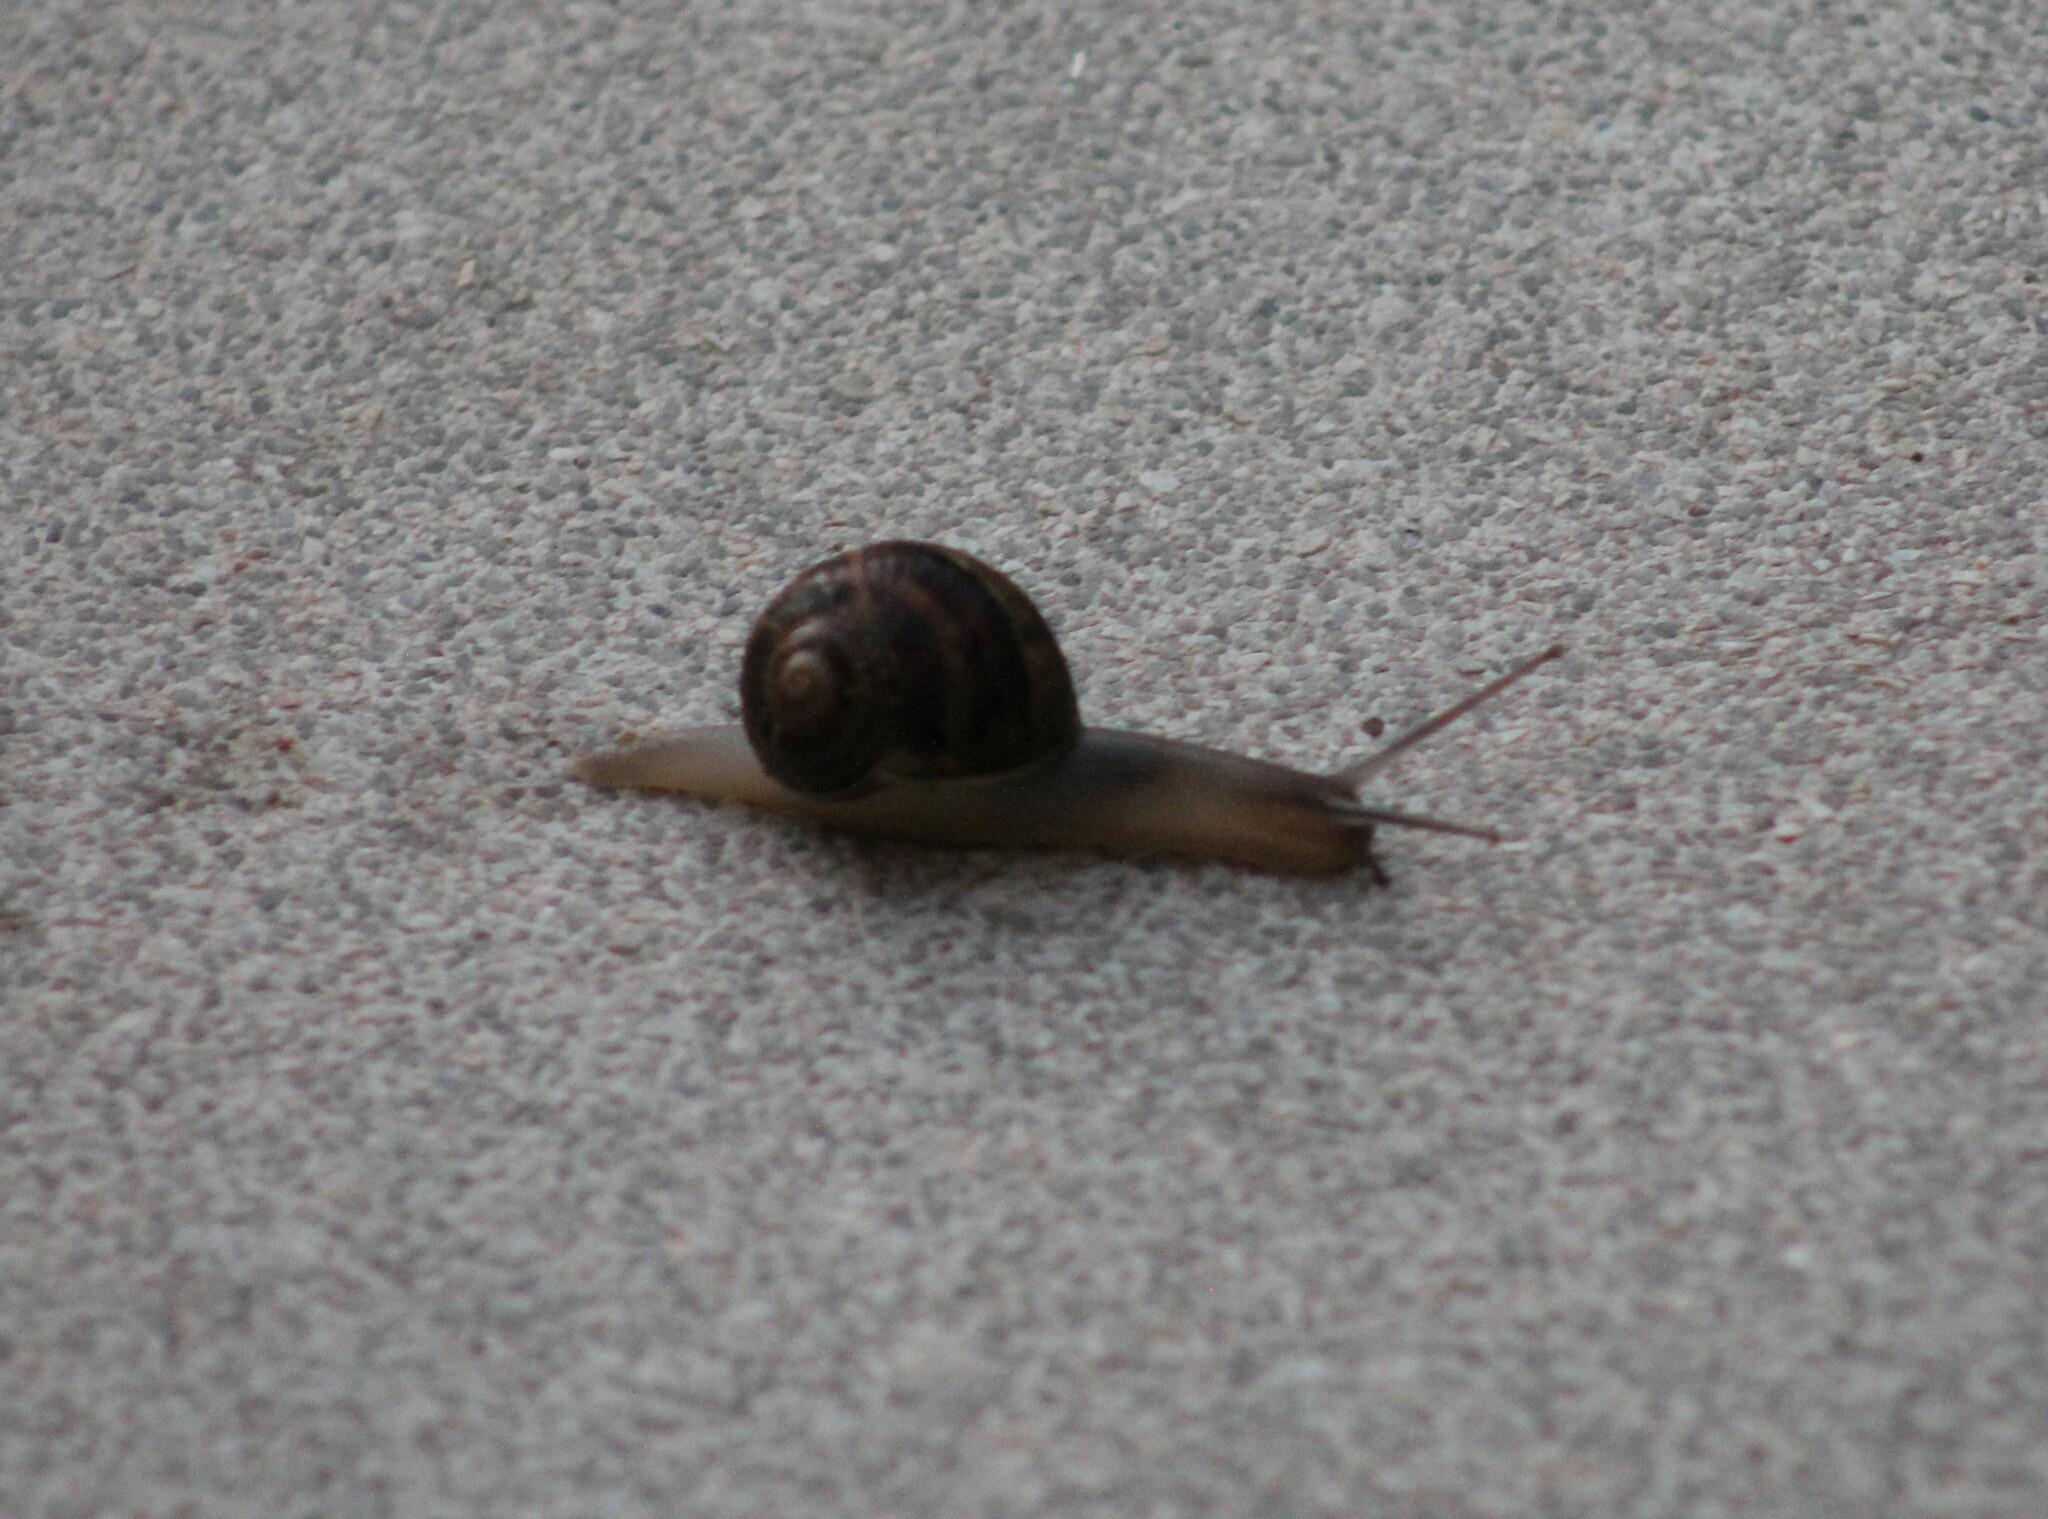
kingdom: Animalia
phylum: Mollusca
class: Gastropoda
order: Stylommatophora
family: Helicidae
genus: Cornu
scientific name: Cornu aspersum
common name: Brown garden snail
